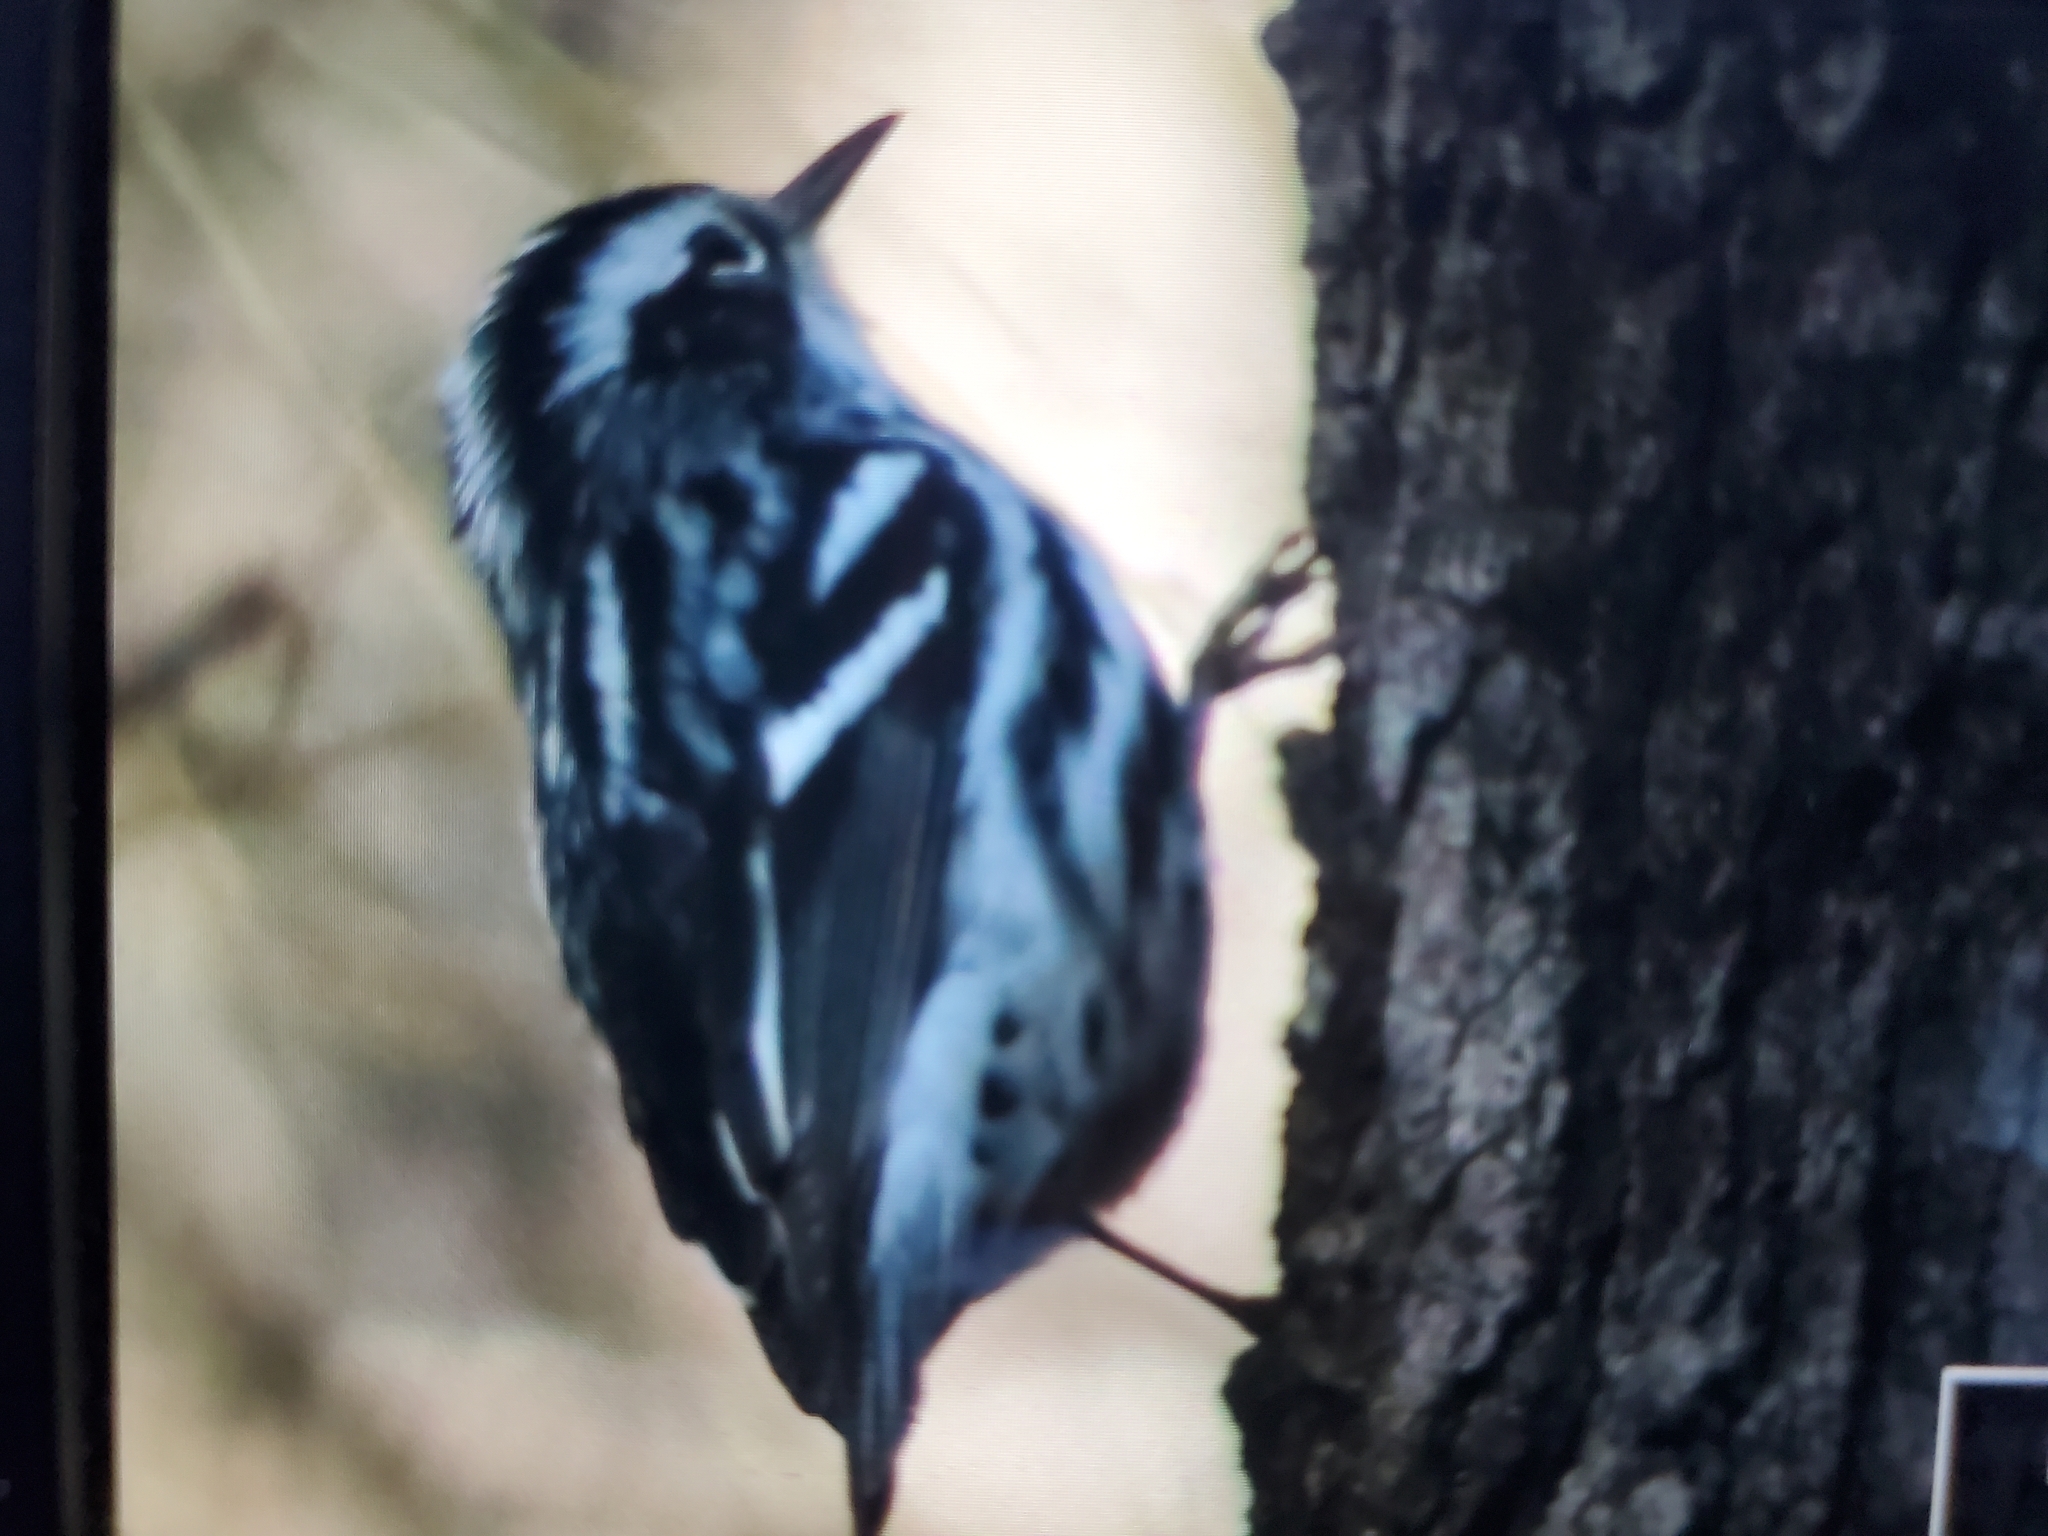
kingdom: Animalia
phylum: Chordata
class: Aves
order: Passeriformes
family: Parulidae
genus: Mniotilta
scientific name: Mniotilta varia
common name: Black-and-white warbler
